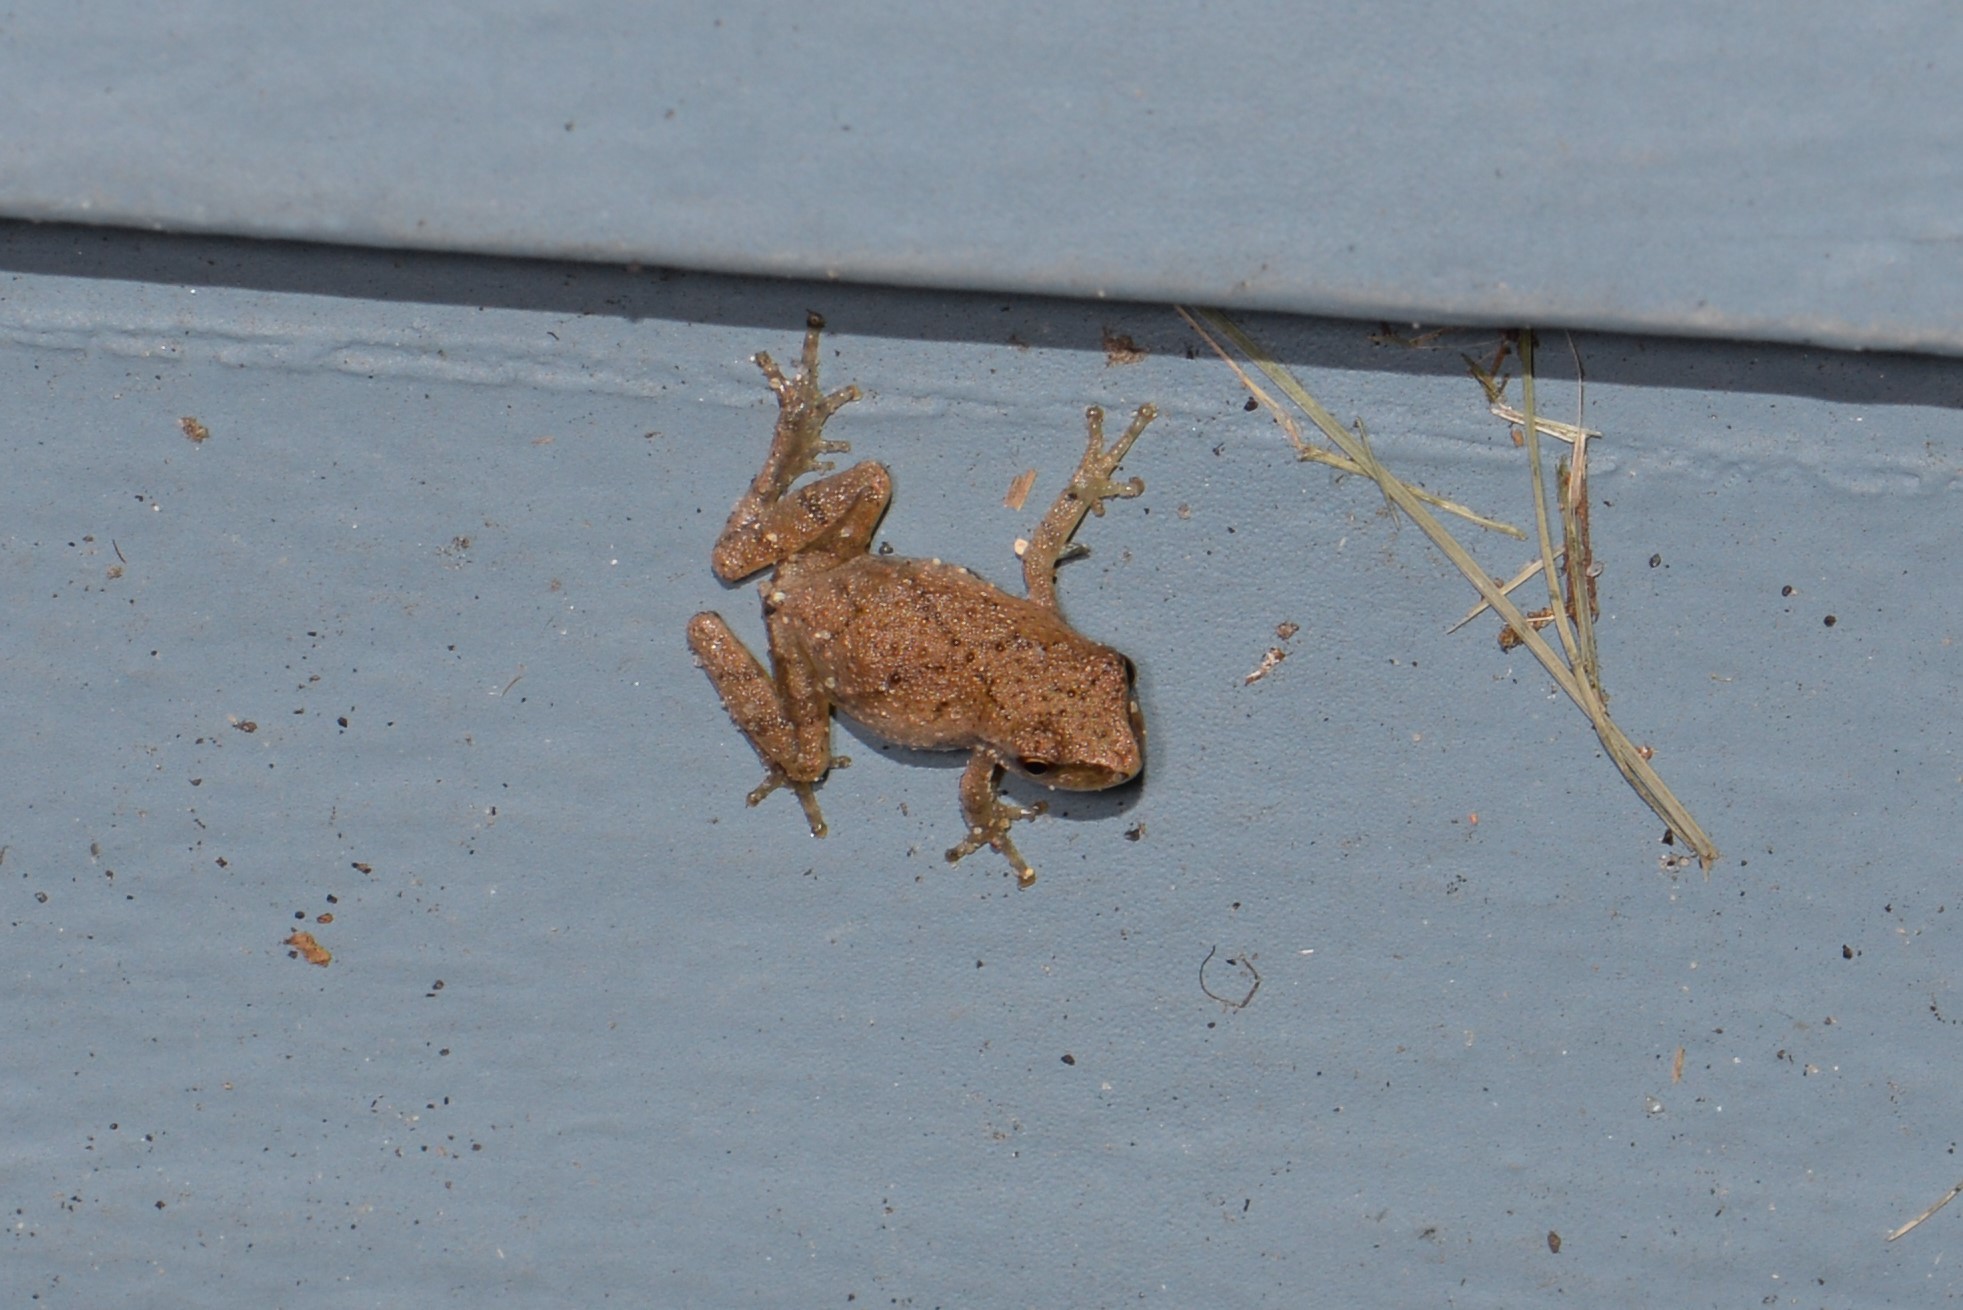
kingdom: Animalia
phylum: Chordata
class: Amphibia
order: Anura
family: Hylidae
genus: Pseudacris
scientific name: Pseudacris crucifer
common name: Spring peeper
